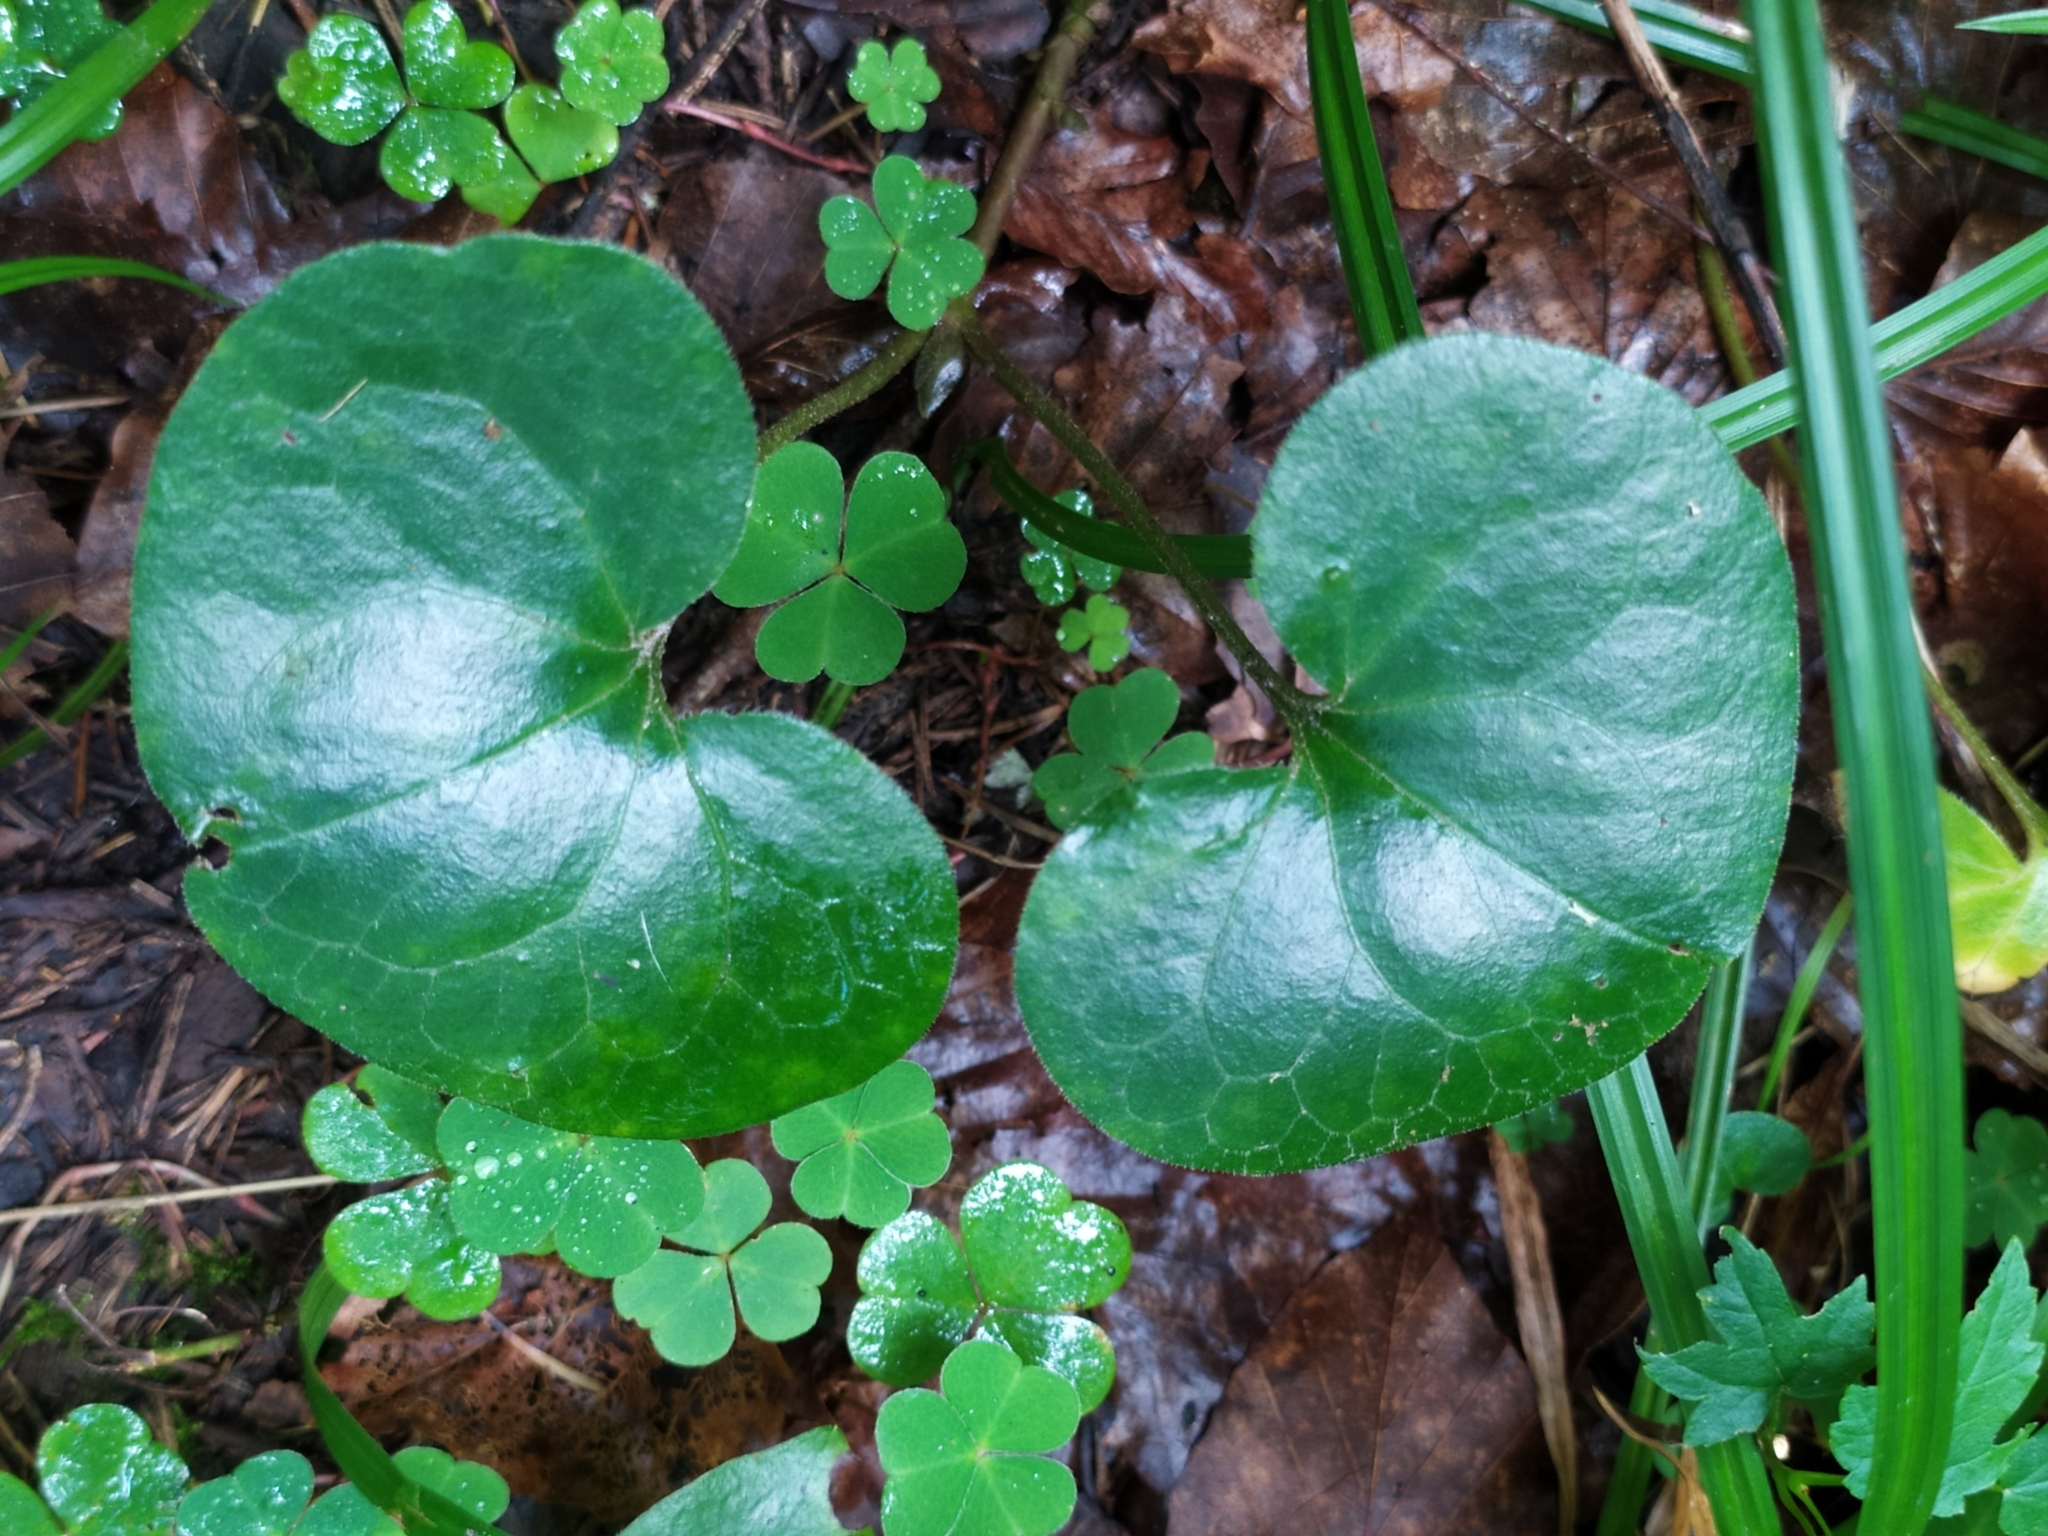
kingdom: Plantae
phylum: Tracheophyta
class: Magnoliopsida
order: Piperales
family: Aristolochiaceae
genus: Asarum
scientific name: Asarum europaeum
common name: Asarabacca
